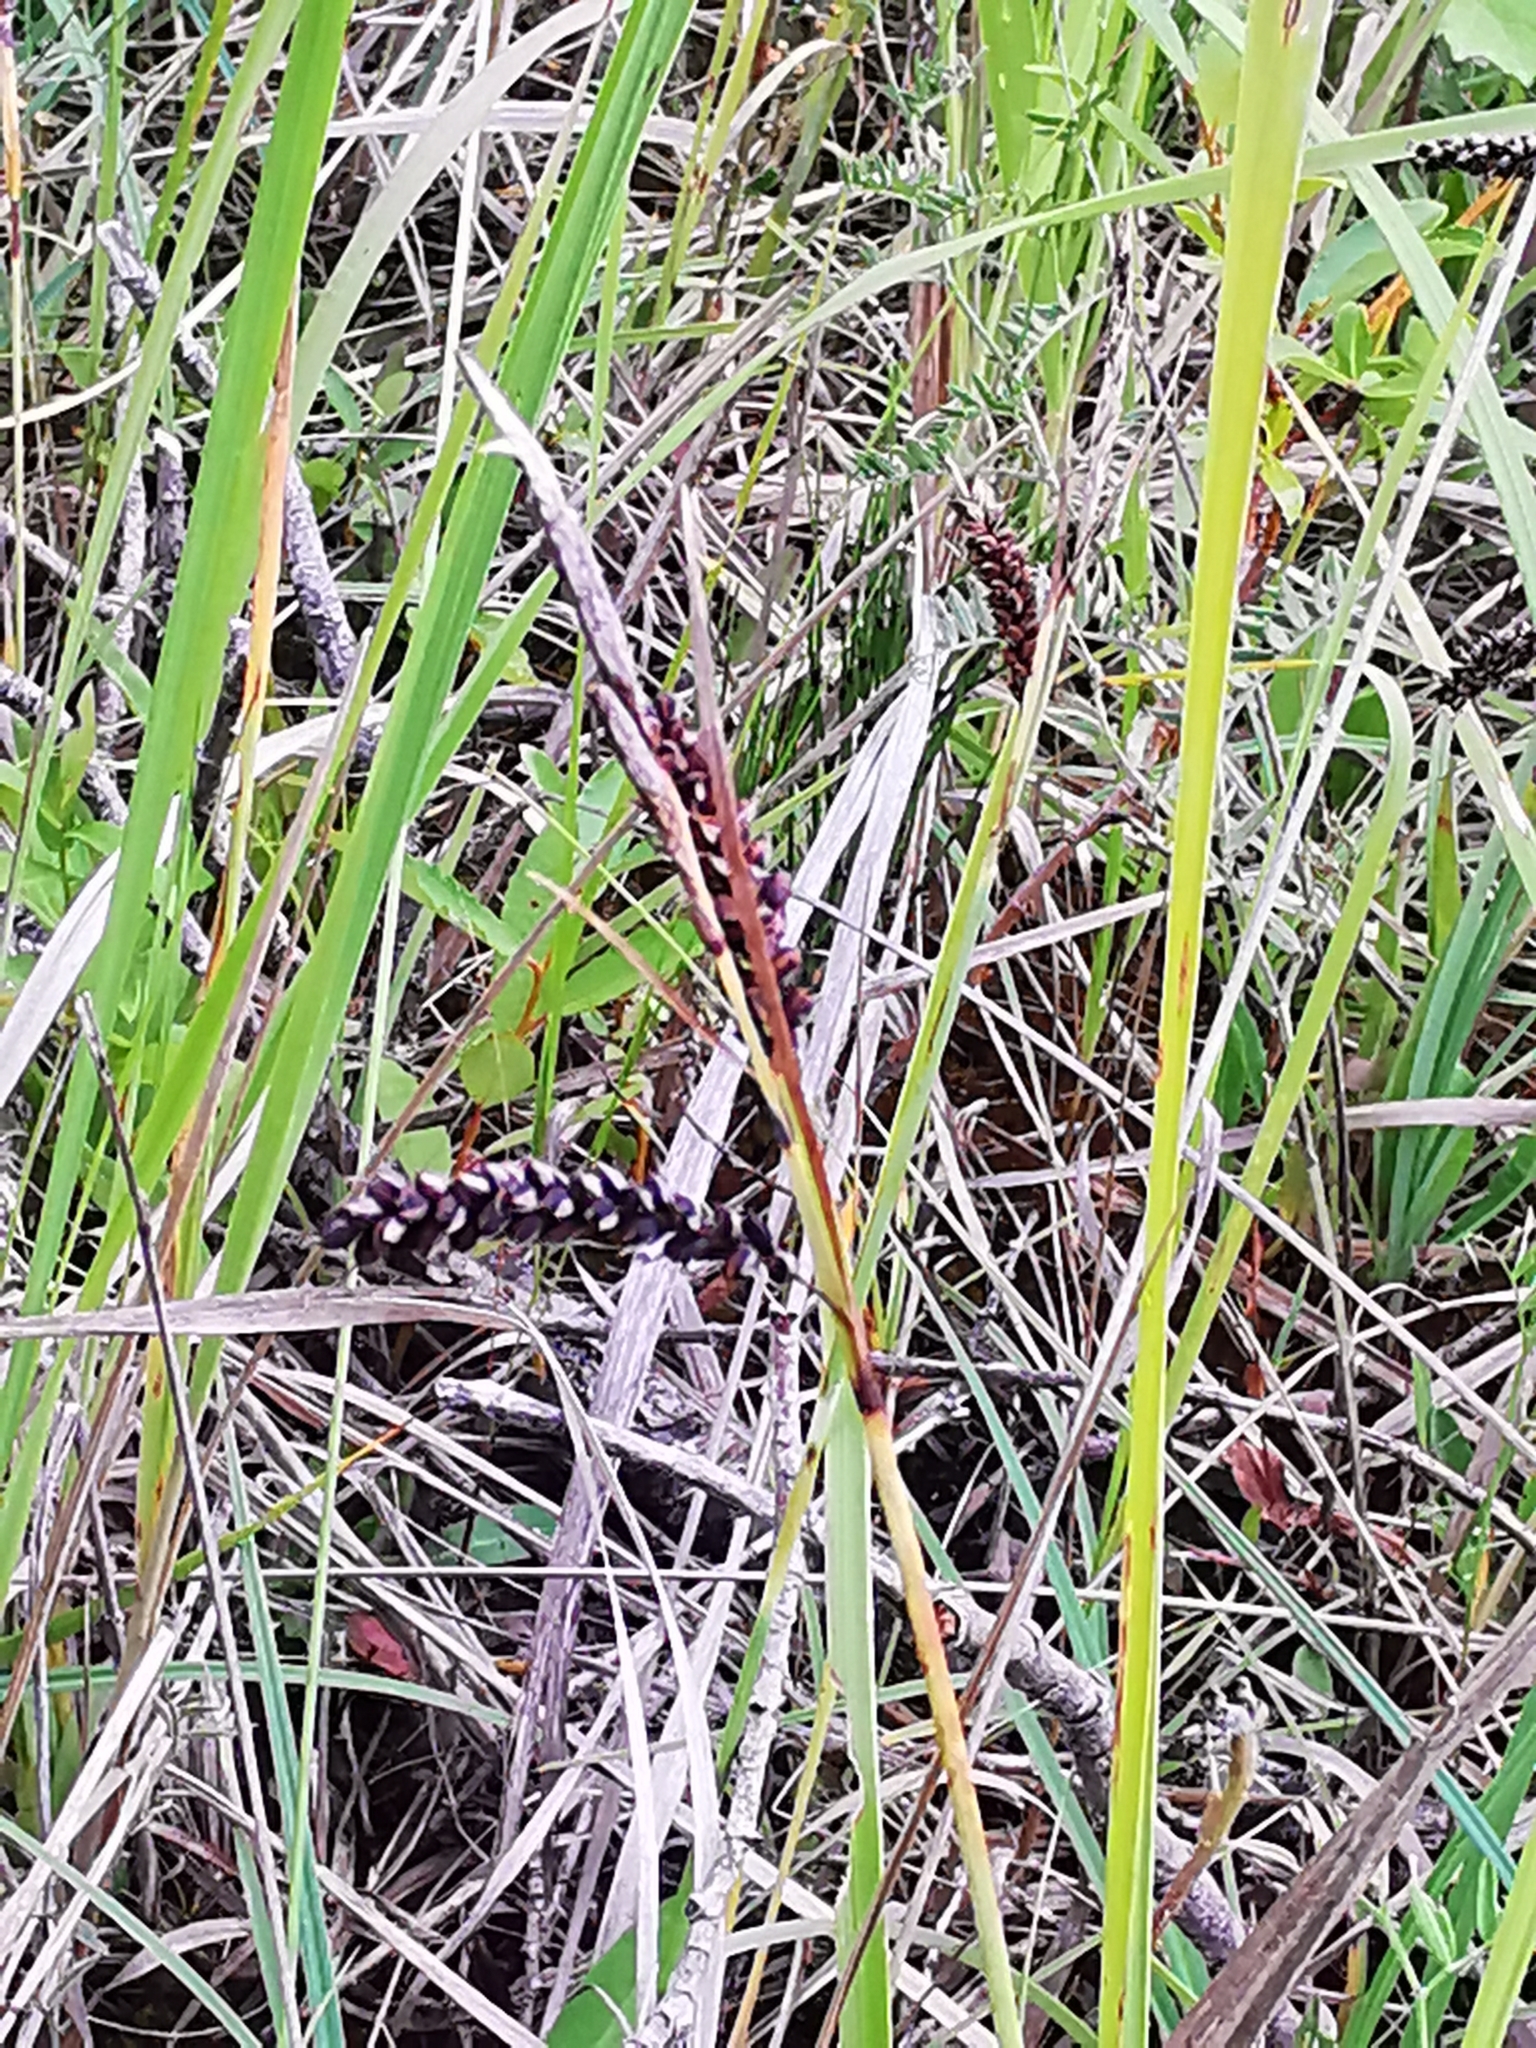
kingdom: Plantae
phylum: Tracheophyta
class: Liliopsida
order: Poales
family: Cyperaceae
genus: Carex
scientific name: Carex flacca
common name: Glaucous sedge
